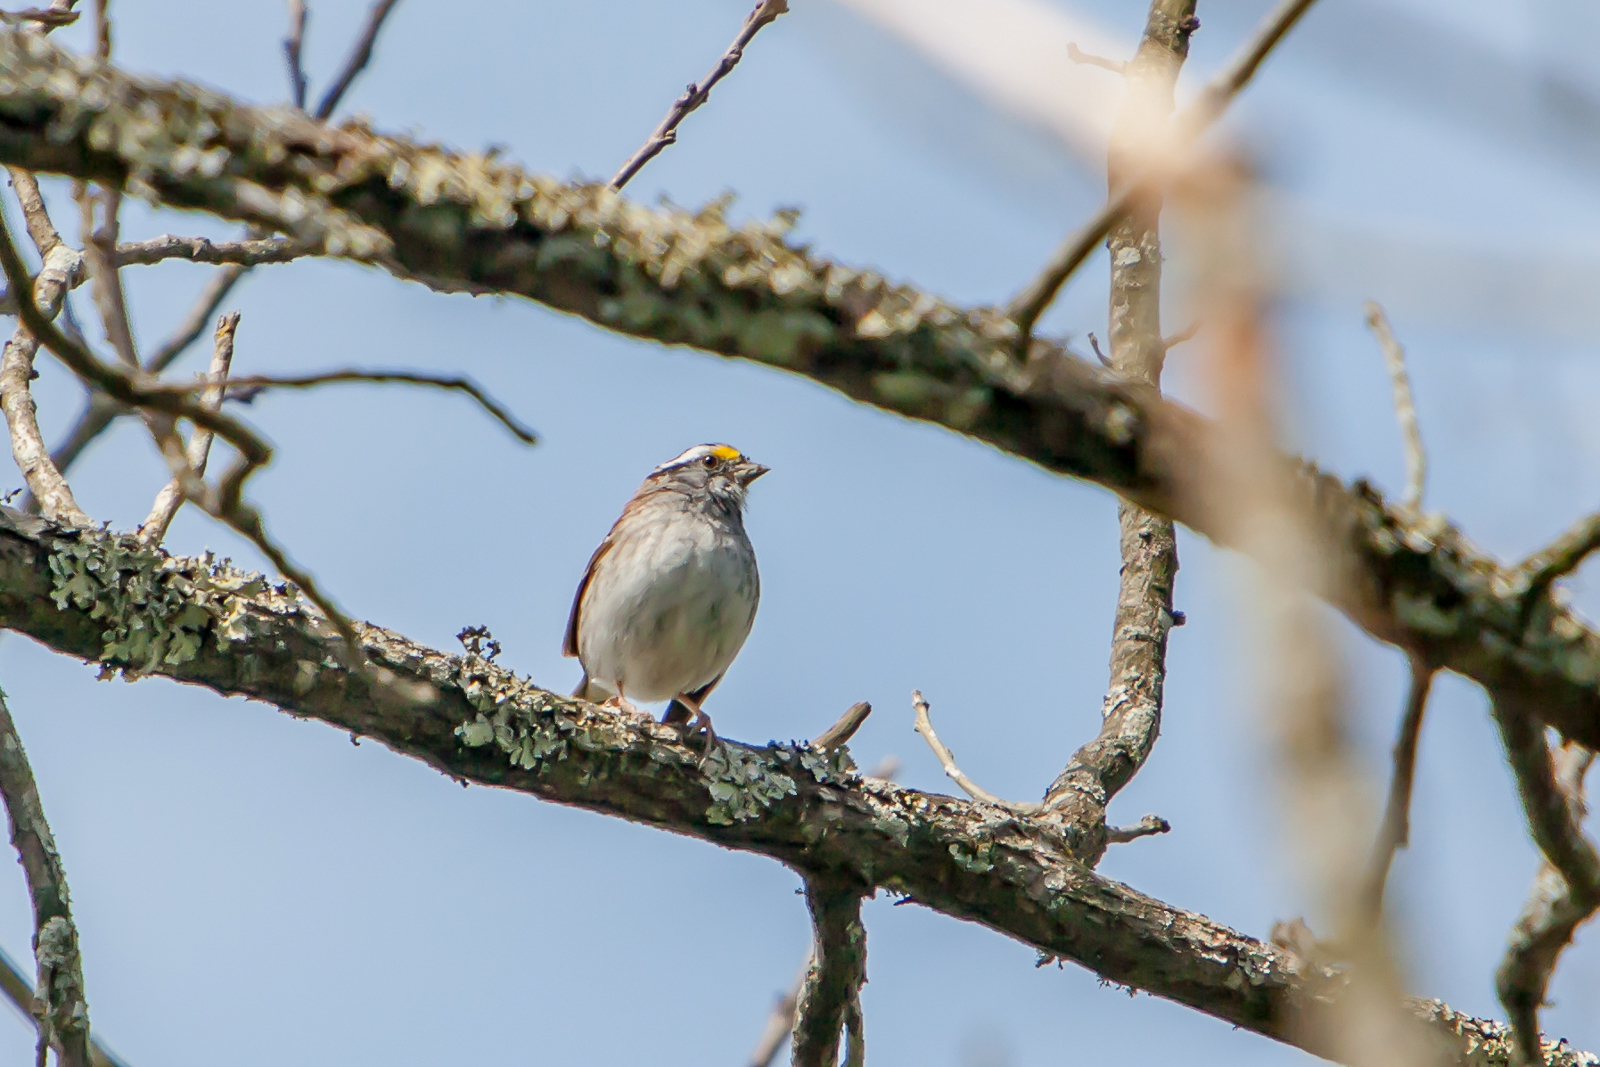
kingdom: Animalia
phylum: Chordata
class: Aves
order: Passeriformes
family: Passerellidae
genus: Zonotrichia
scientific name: Zonotrichia albicollis
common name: White-throated sparrow
